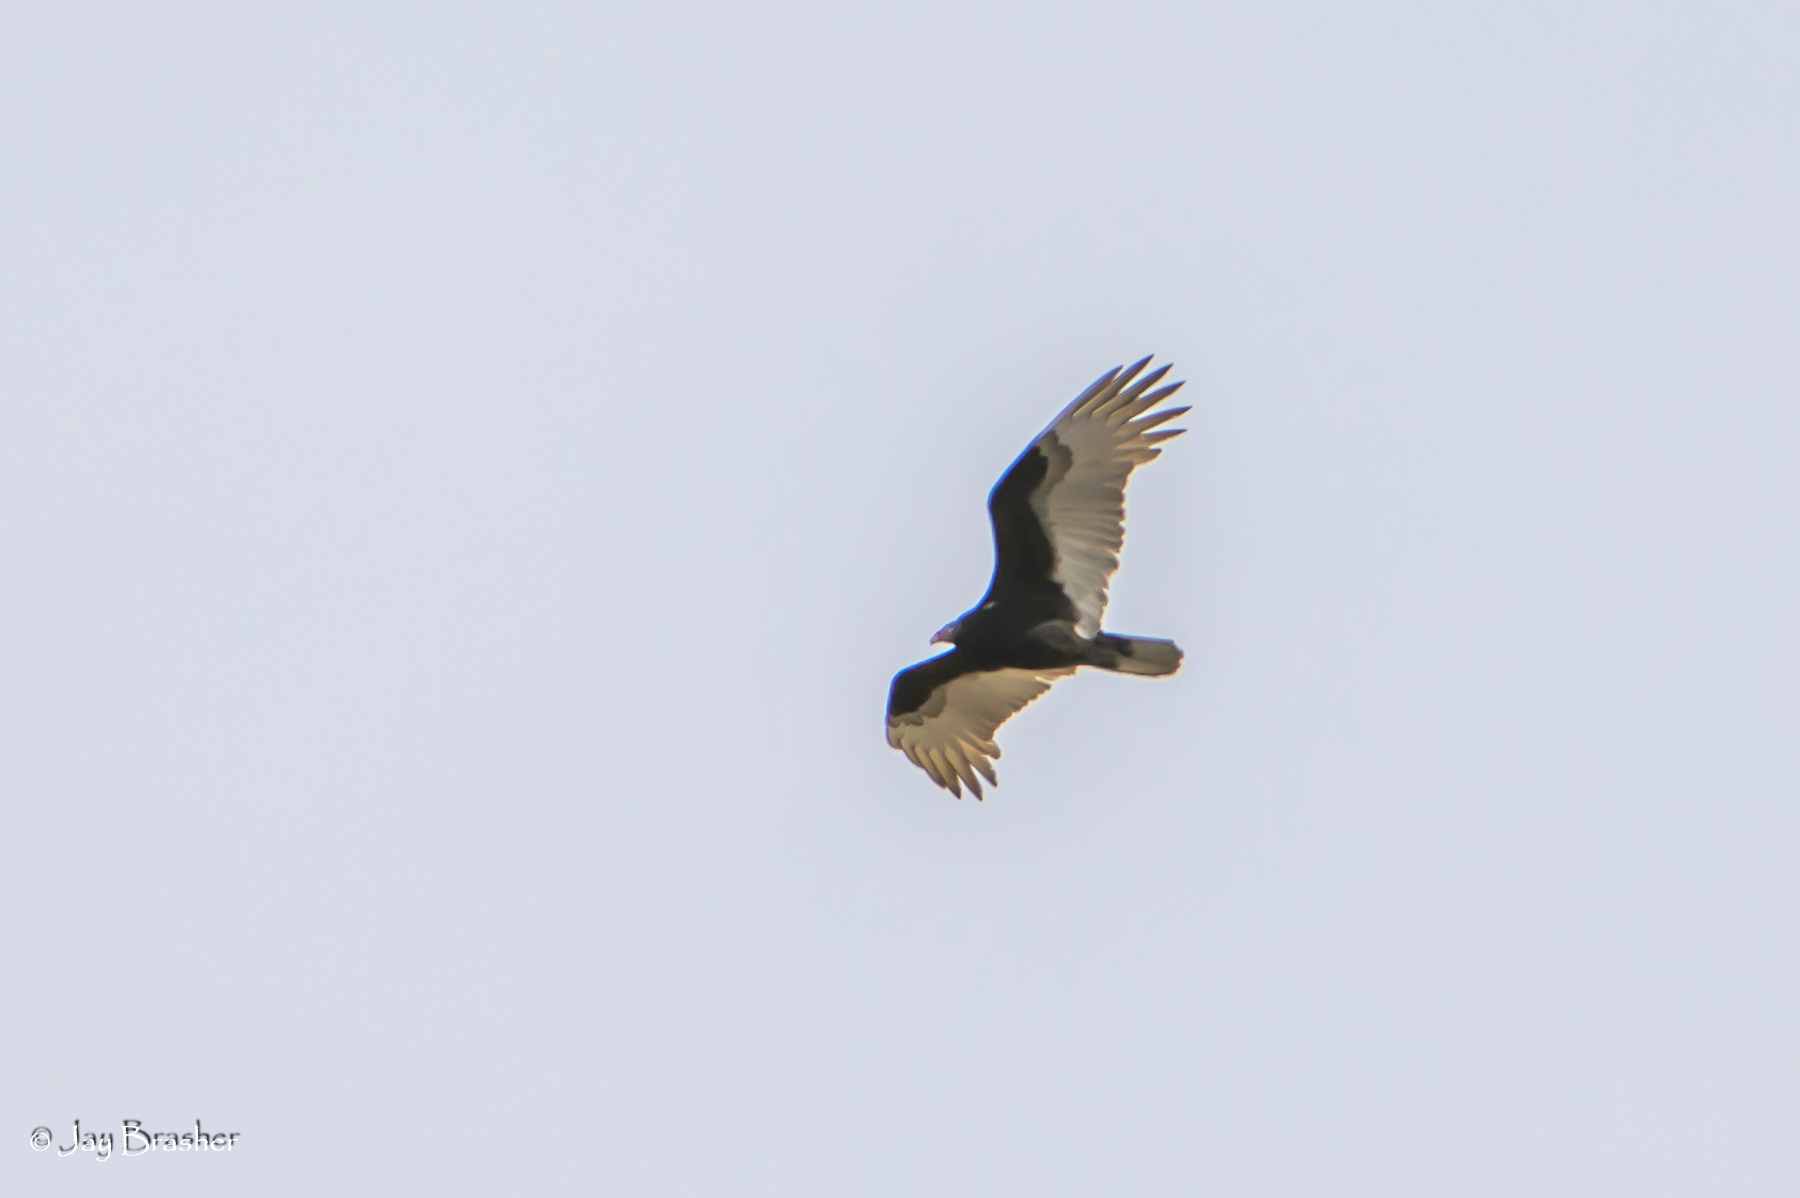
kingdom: Animalia
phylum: Chordata
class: Aves
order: Accipitriformes
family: Cathartidae
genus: Cathartes
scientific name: Cathartes aura
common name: Turkey vulture
